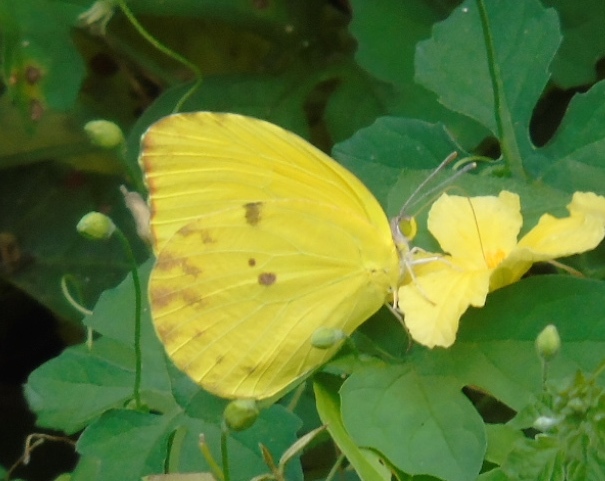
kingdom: Animalia
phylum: Arthropoda
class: Insecta
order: Lepidoptera
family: Pieridae
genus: Prestonia
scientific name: Prestonia clarki
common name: West-mexican sulphur
